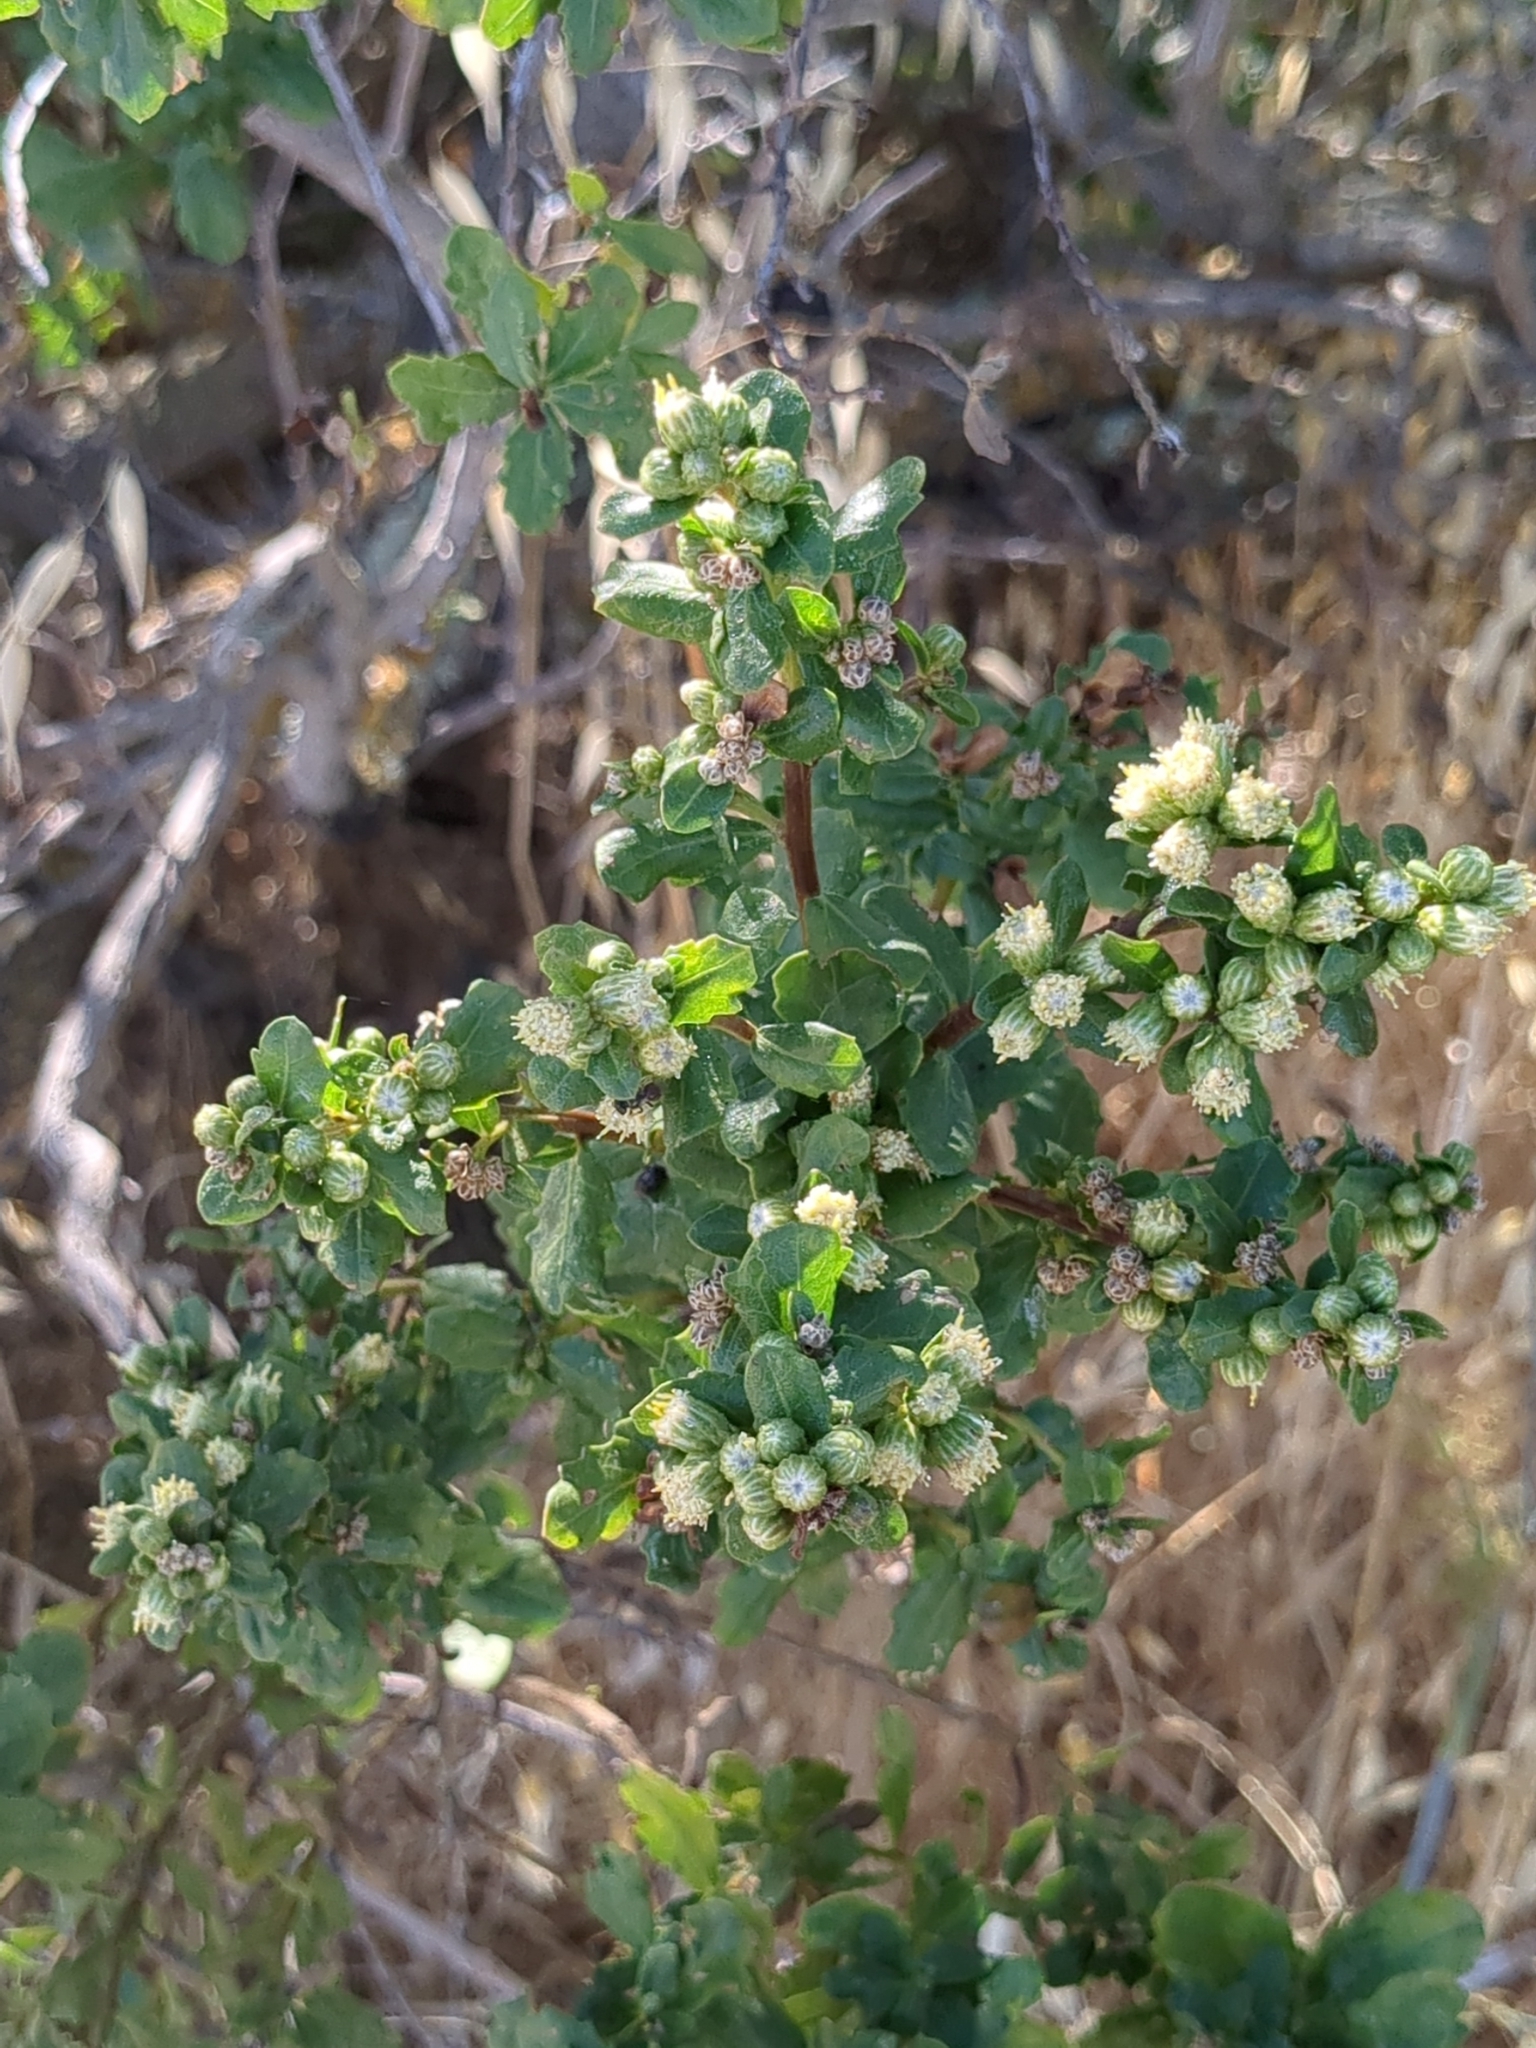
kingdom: Plantae
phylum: Tracheophyta
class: Magnoliopsida
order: Asterales
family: Asteraceae
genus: Baccharis
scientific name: Baccharis pilularis
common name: Coyotebrush
